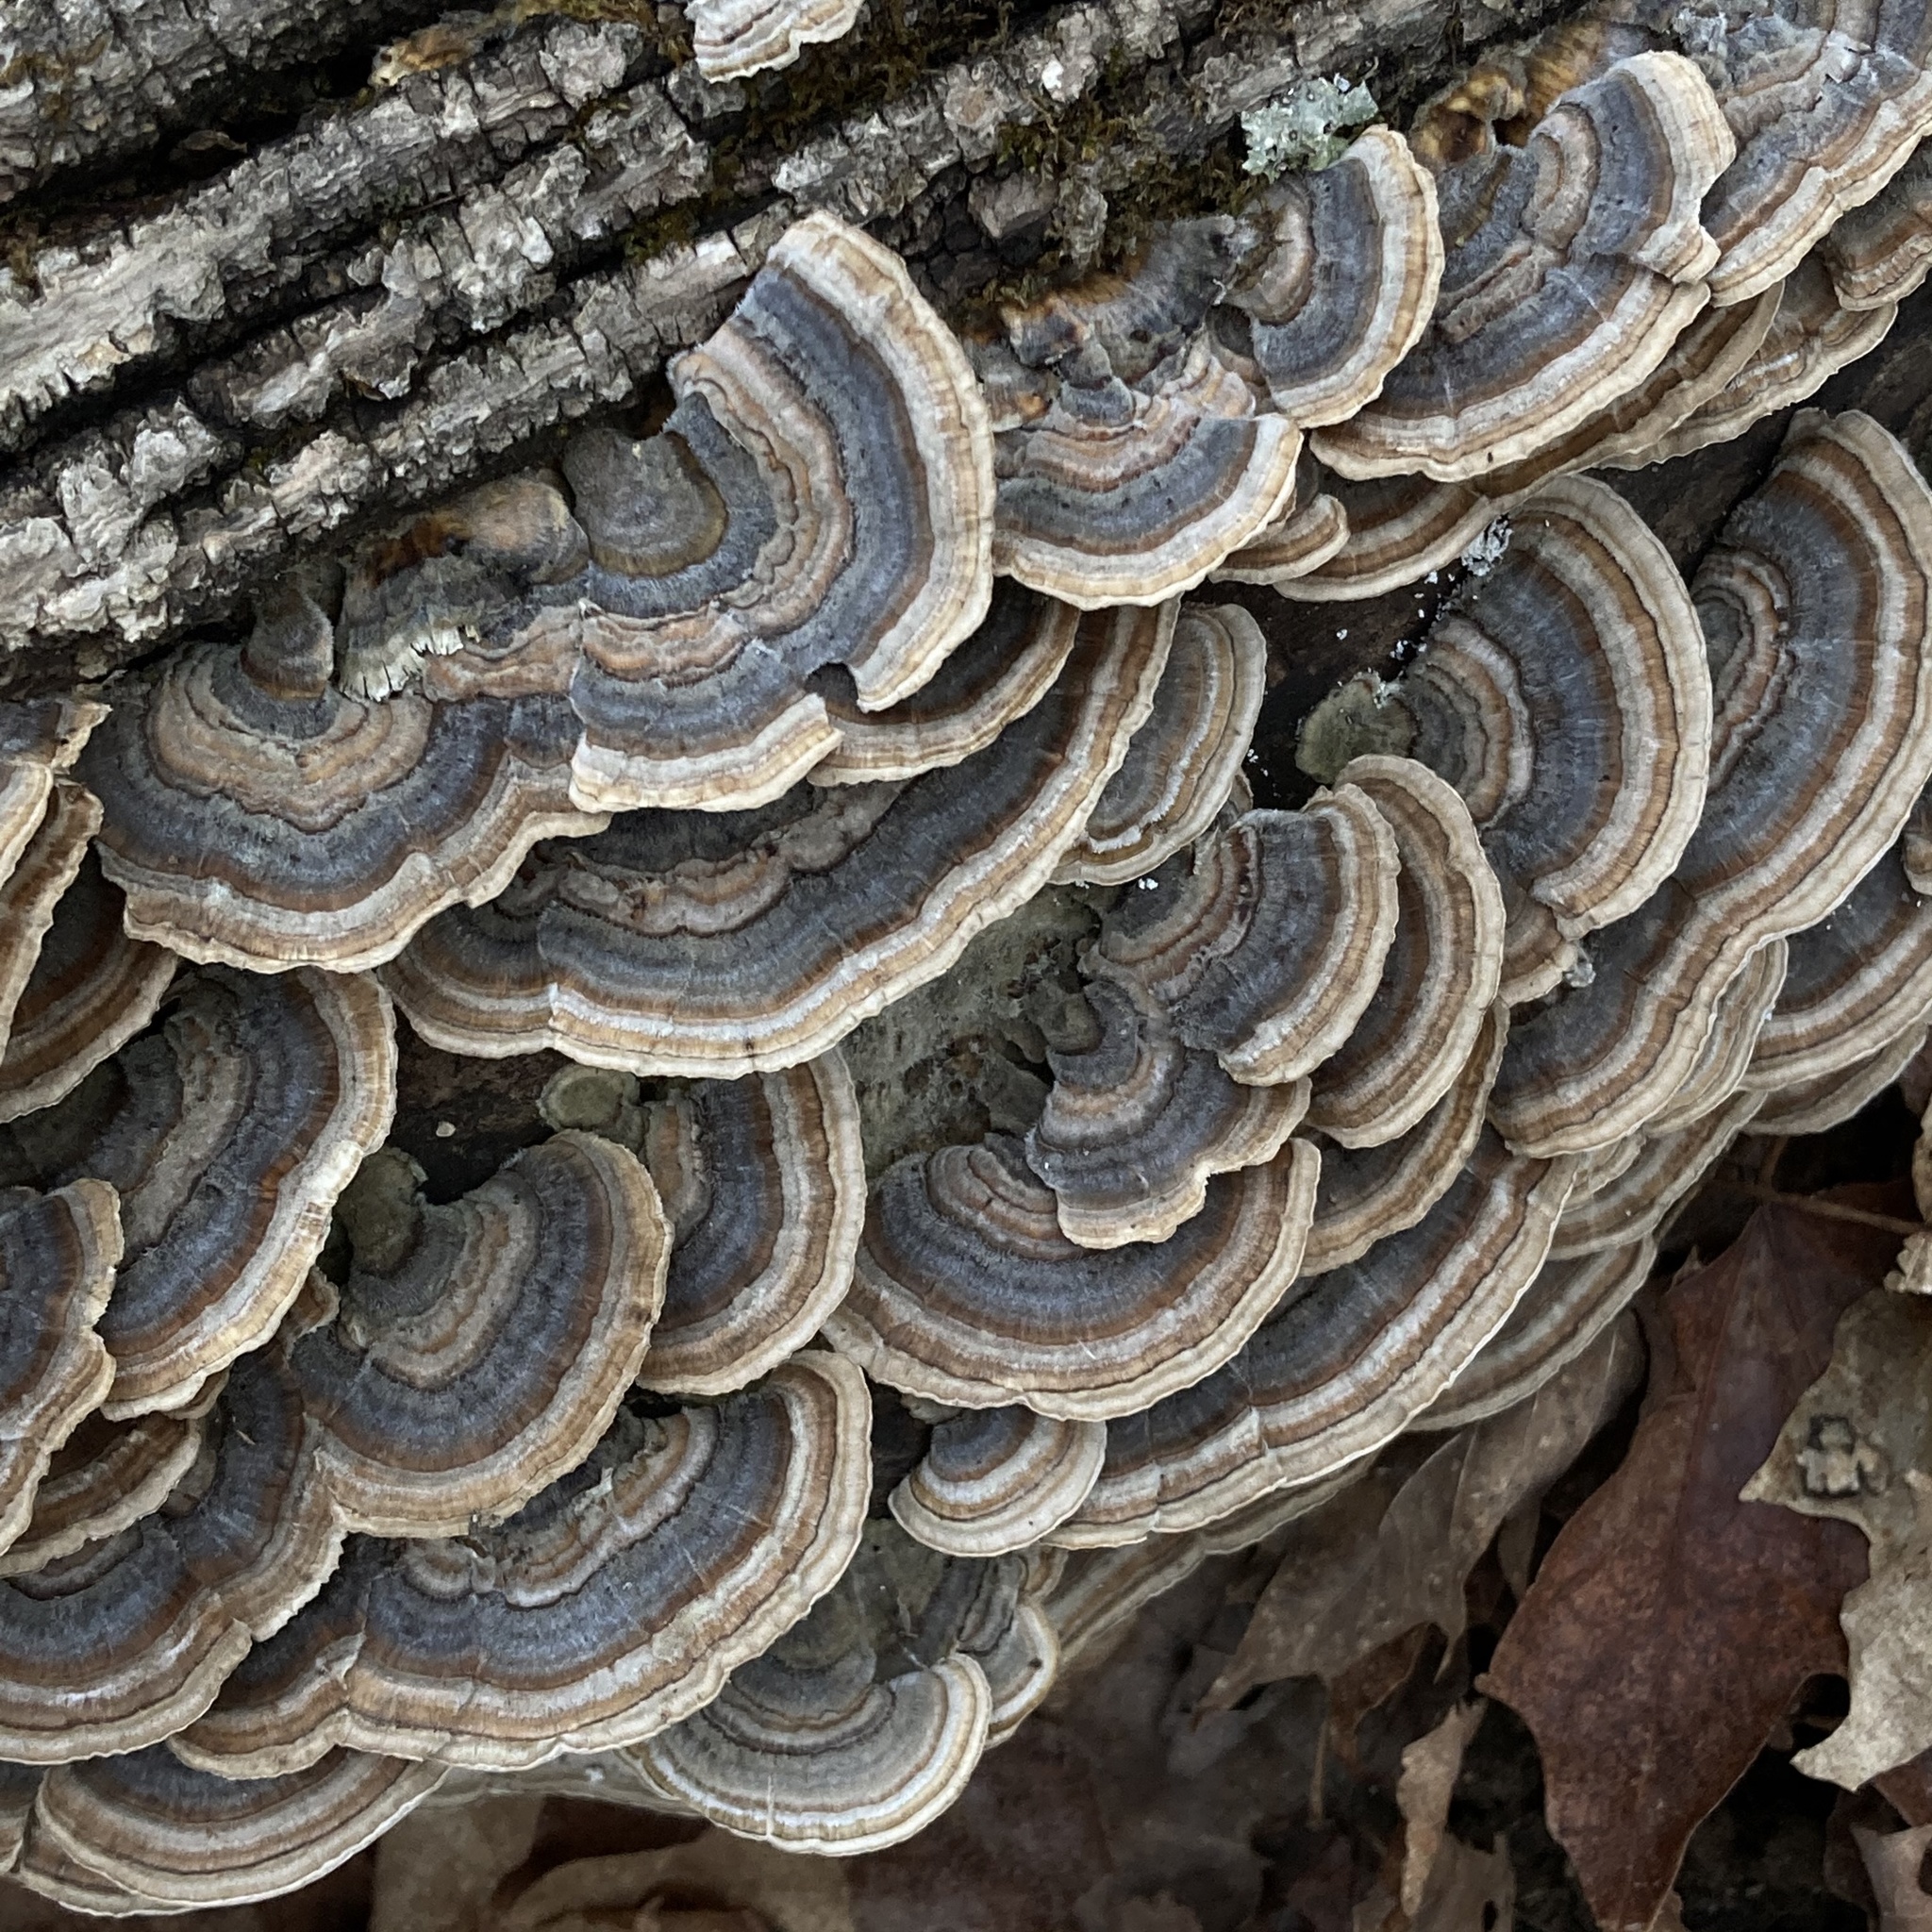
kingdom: Fungi
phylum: Basidiomycota
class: Agaricomycetes
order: Polyporales
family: Polyporaceae
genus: Trametes
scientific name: Trametes versicolor
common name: Turkeytail
